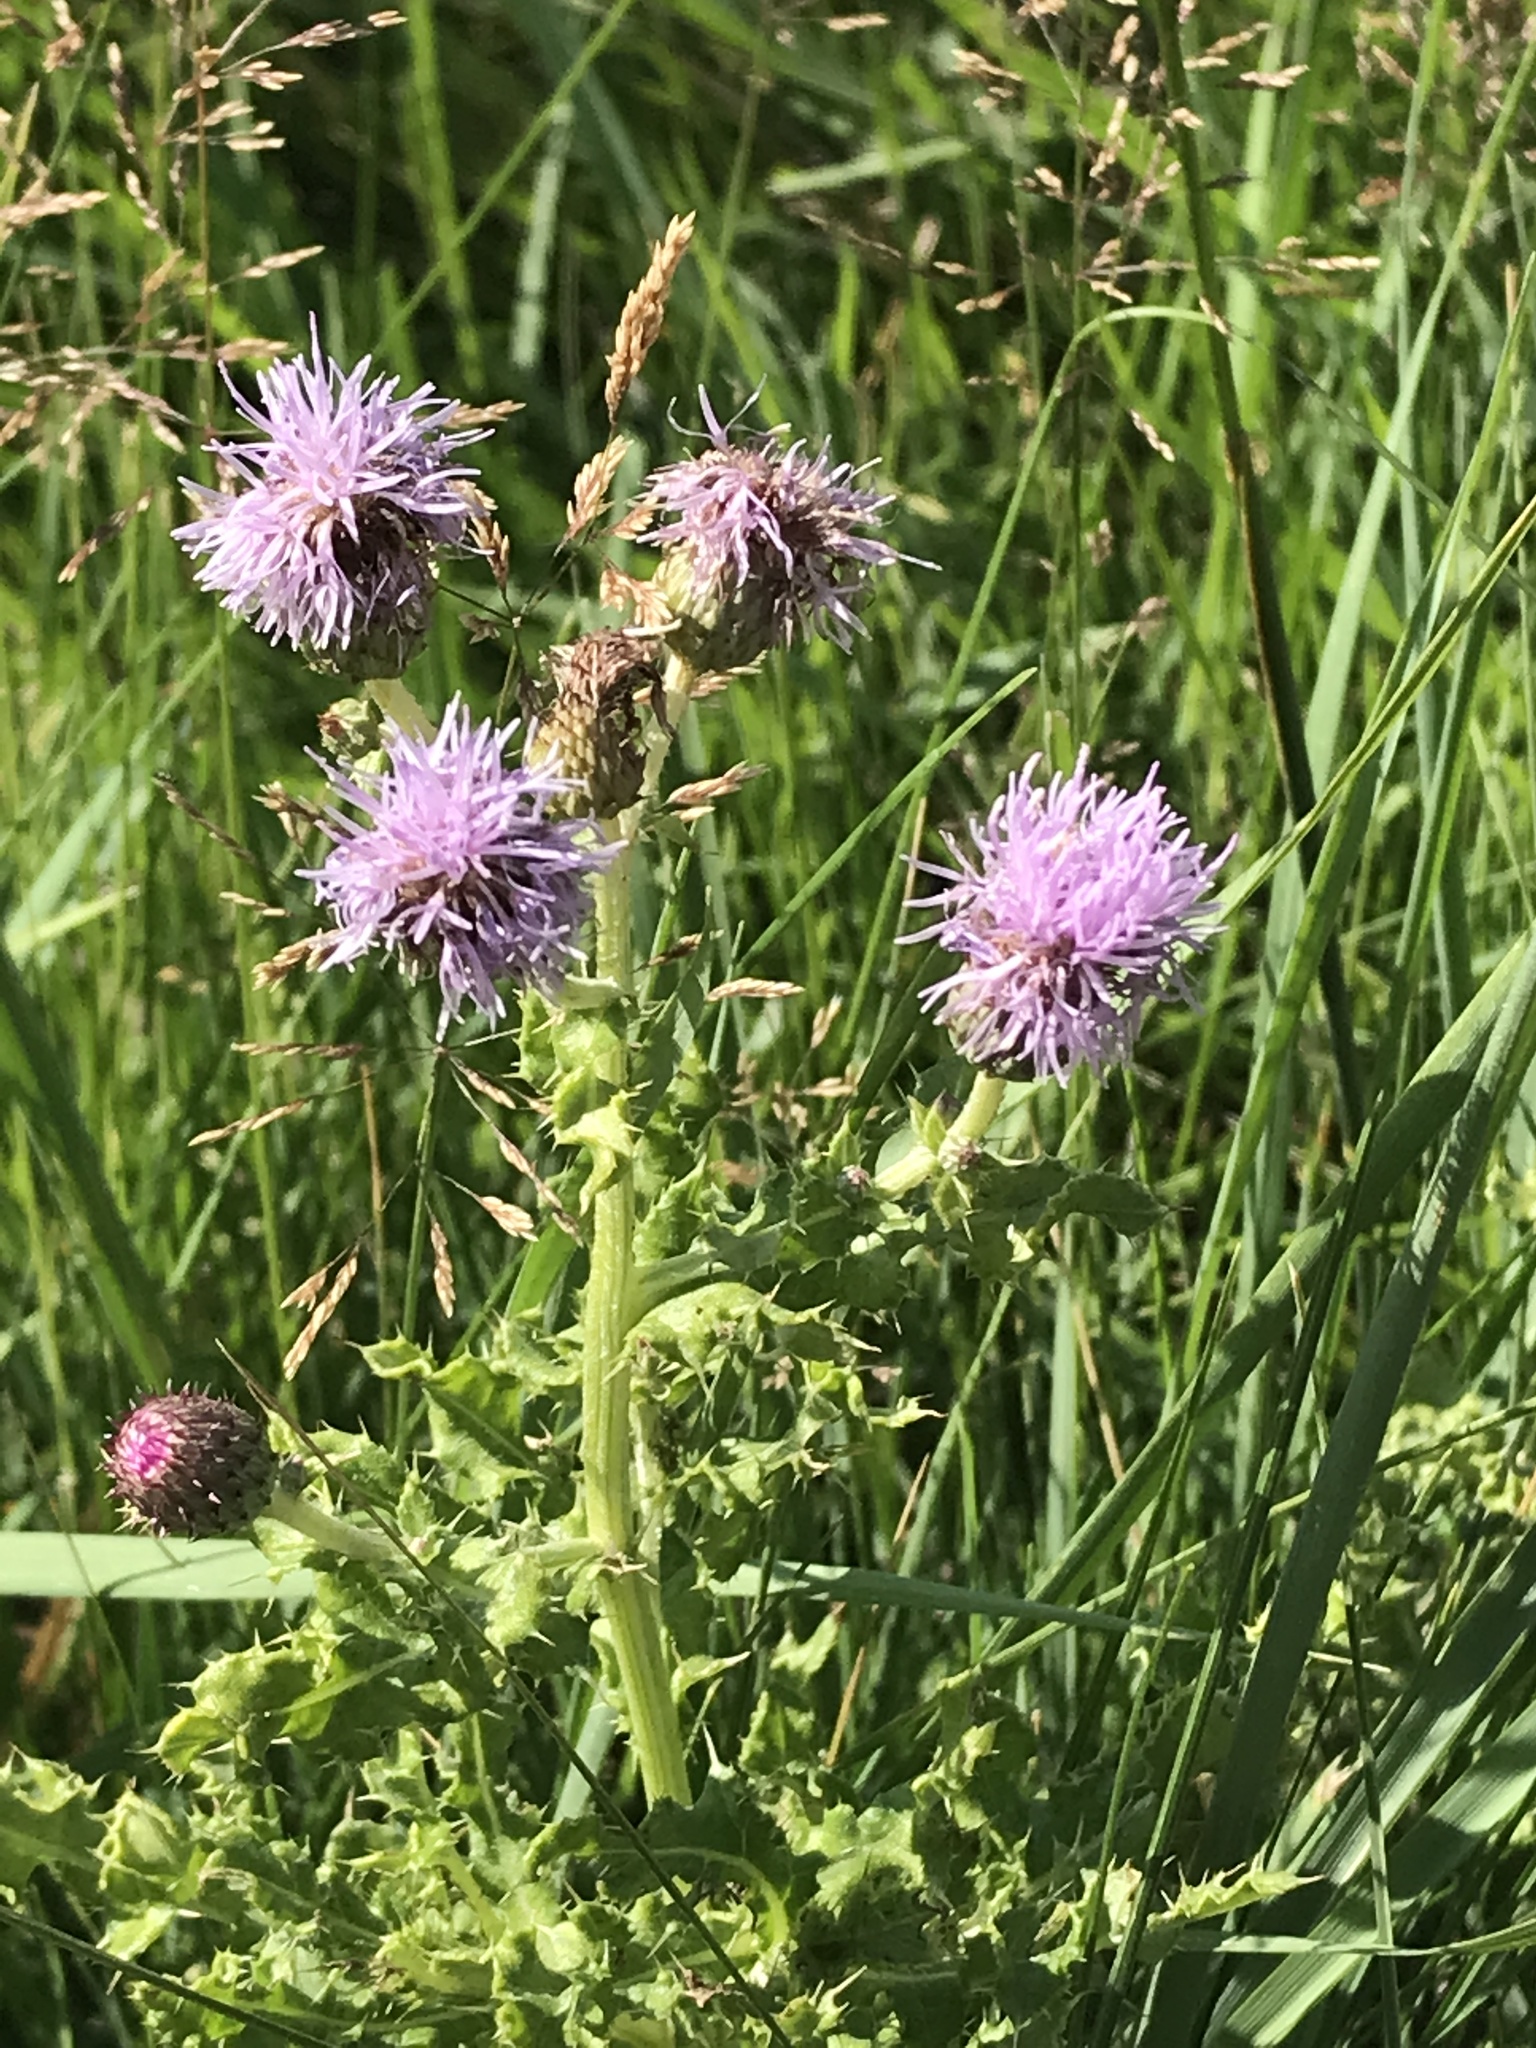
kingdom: Plantae
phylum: Tracheophyta
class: Magnoliopsida
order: Asterales
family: Asteraceae
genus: Cirsium
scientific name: Cirsium arvense
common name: Creeping thistle
